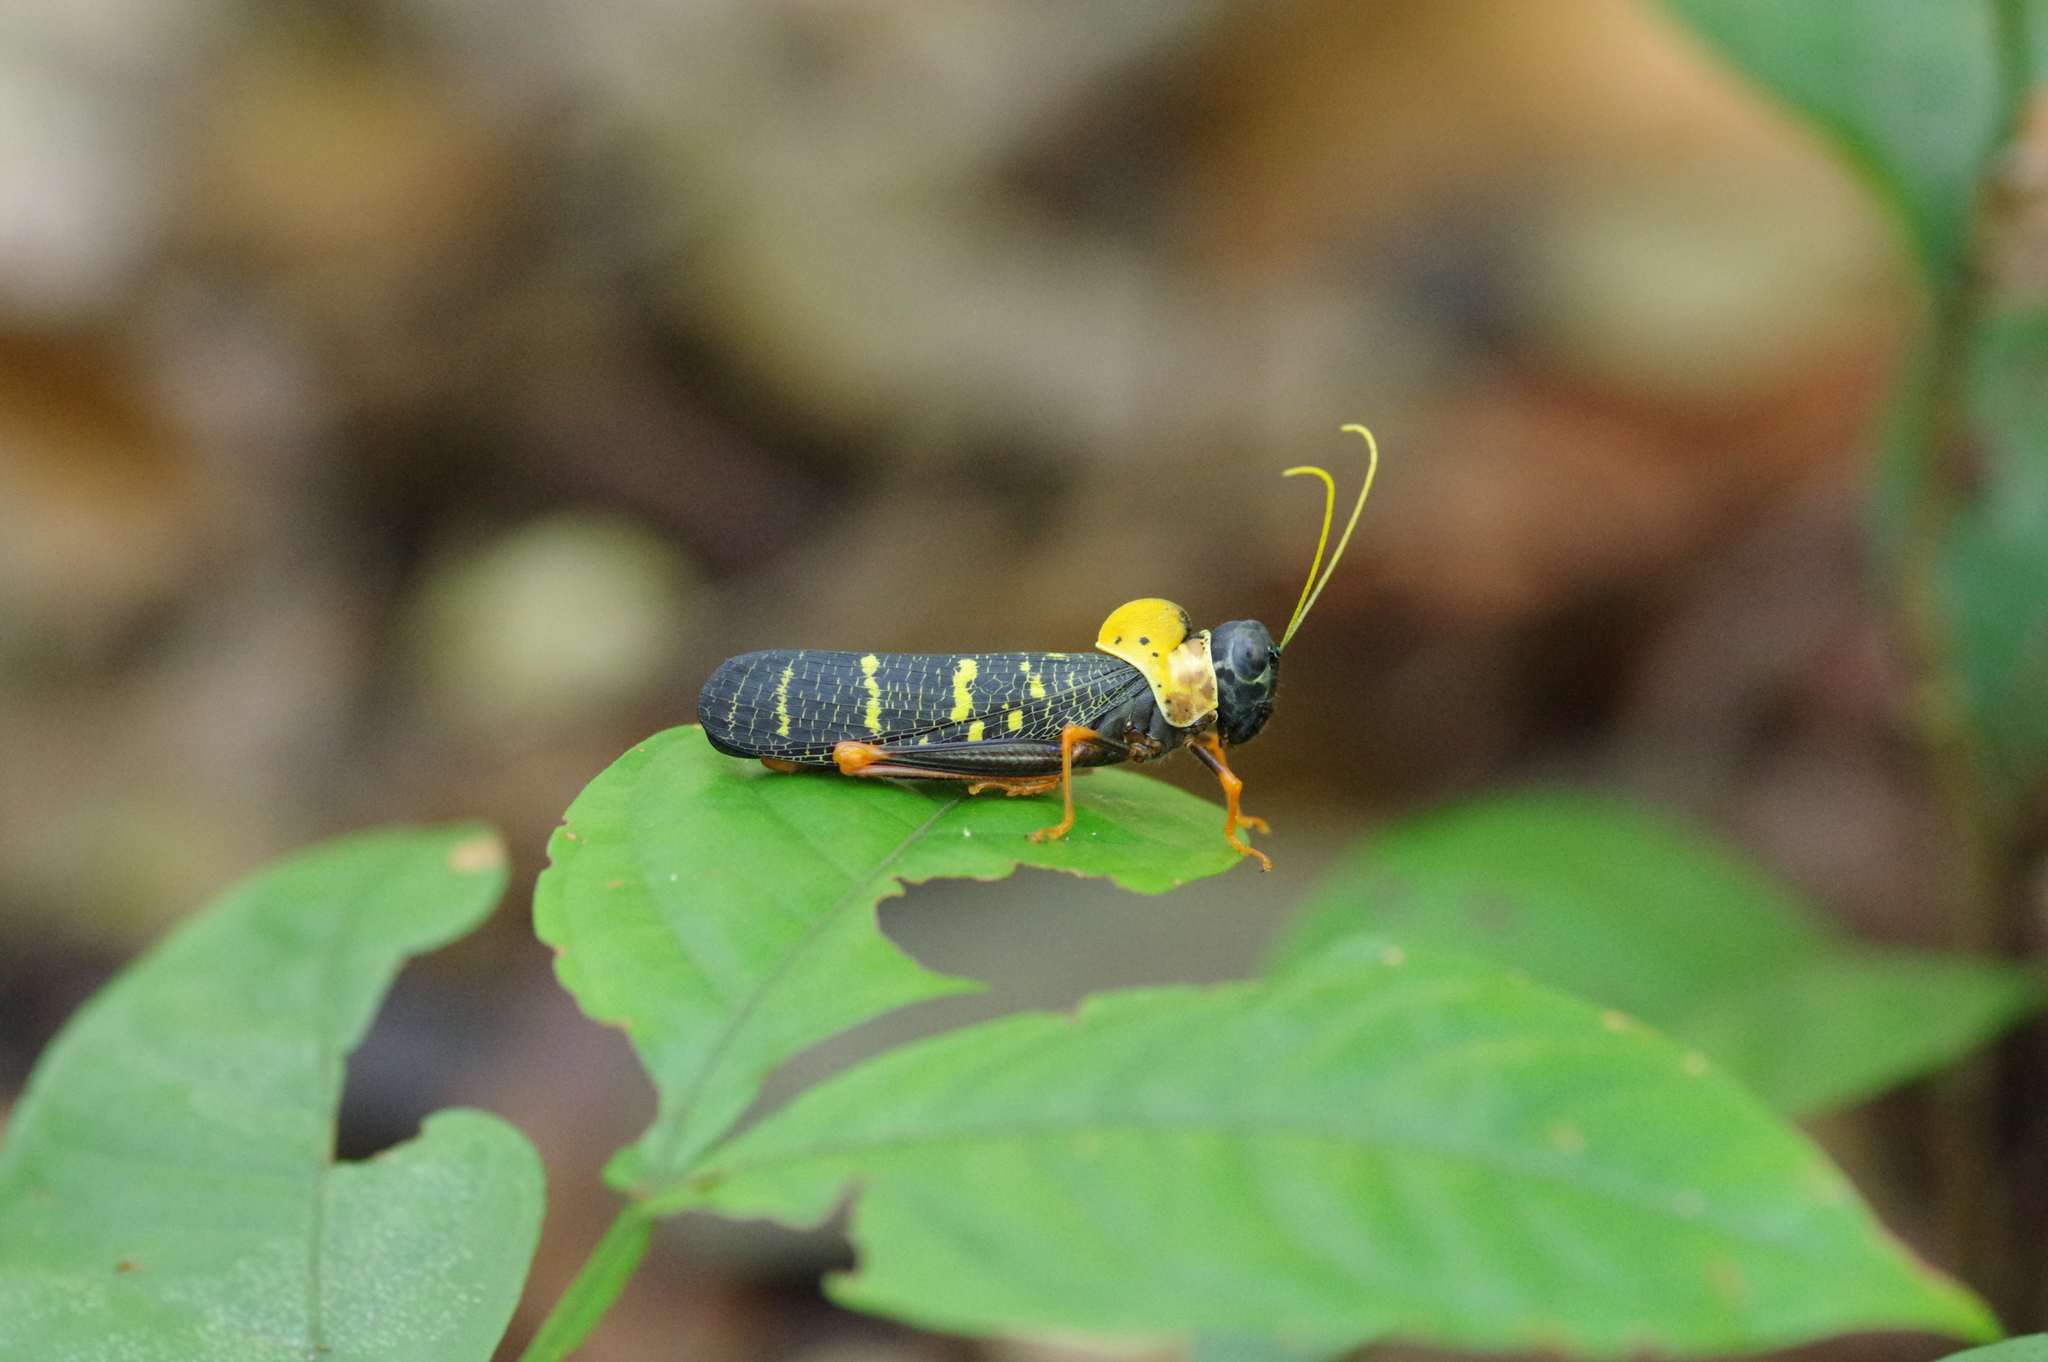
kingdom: Animalia
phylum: Arthropoda
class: Insecta
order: Orthoptera
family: Acrididae
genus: Monachidium
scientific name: Monachidium lunum
